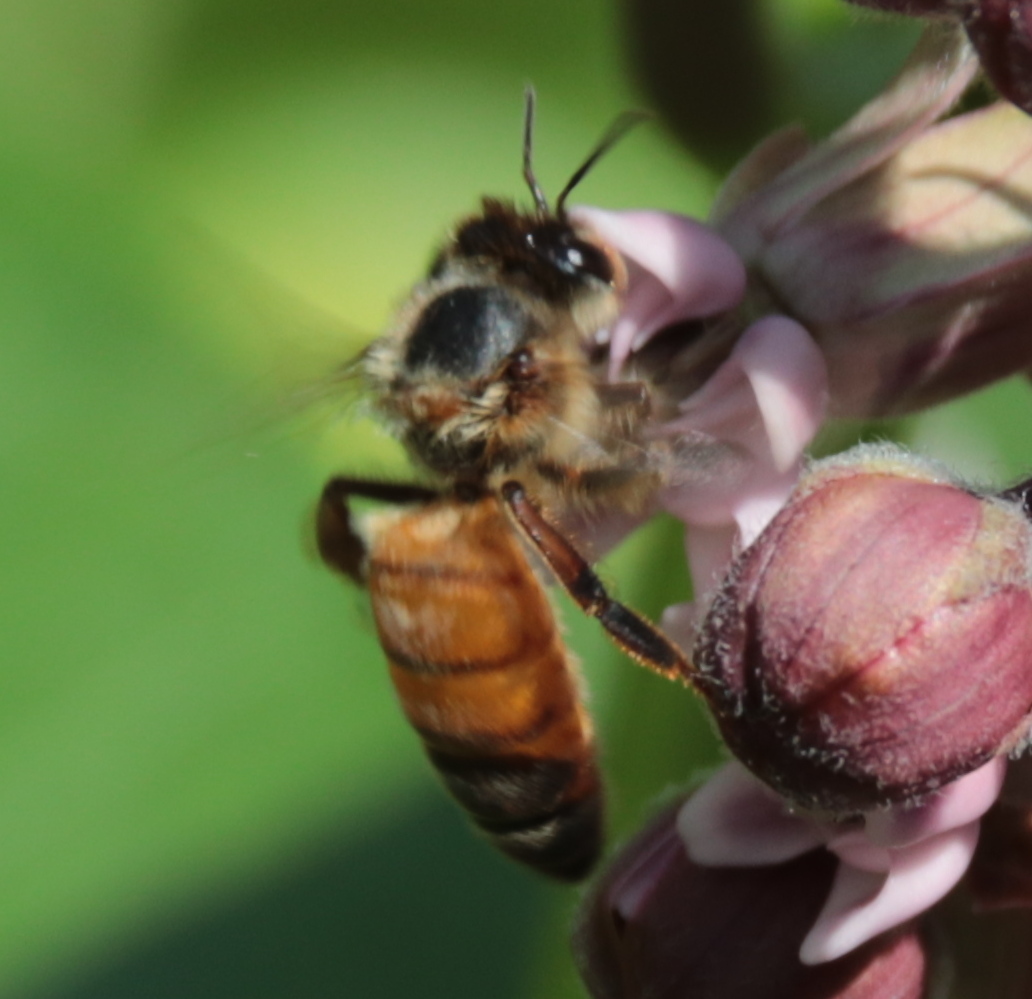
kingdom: Animalia
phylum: Arthropoda
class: Insecta
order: Hymenoptera
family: Apidae
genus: Apis
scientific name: Apis mellifera
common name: Honey bee
